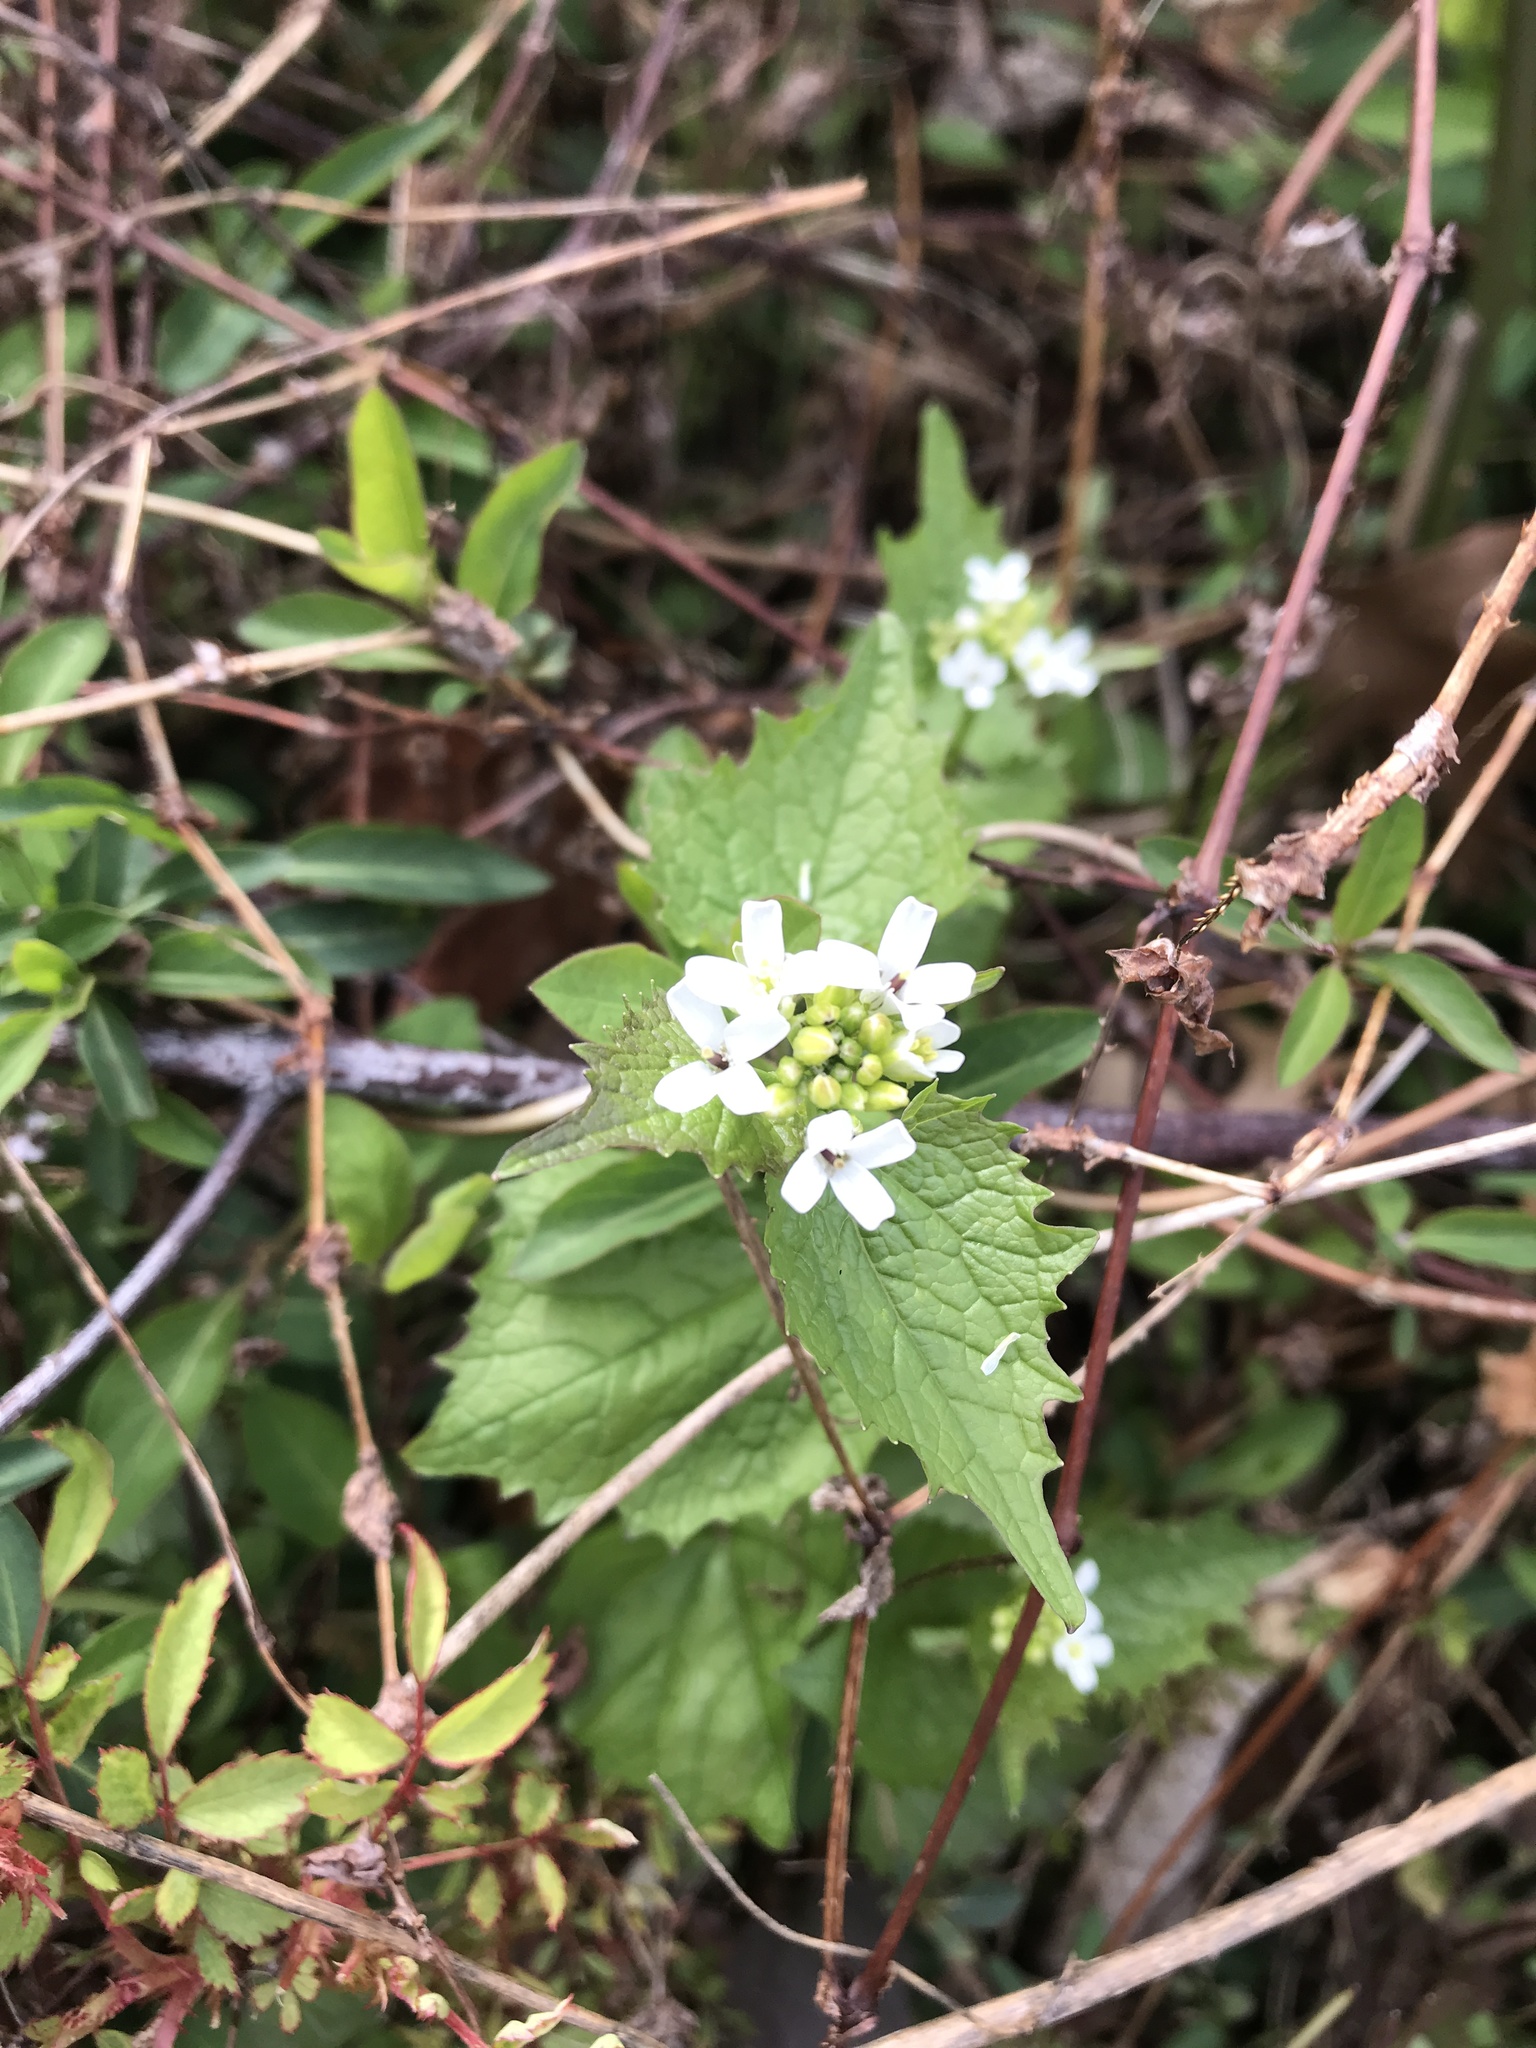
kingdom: Plantae
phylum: Tracheophyta
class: Magnoliopsida
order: Brassicales
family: Brassicaceae
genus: Alliaria
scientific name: Alliaria petiolata
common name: Garlic mustard
